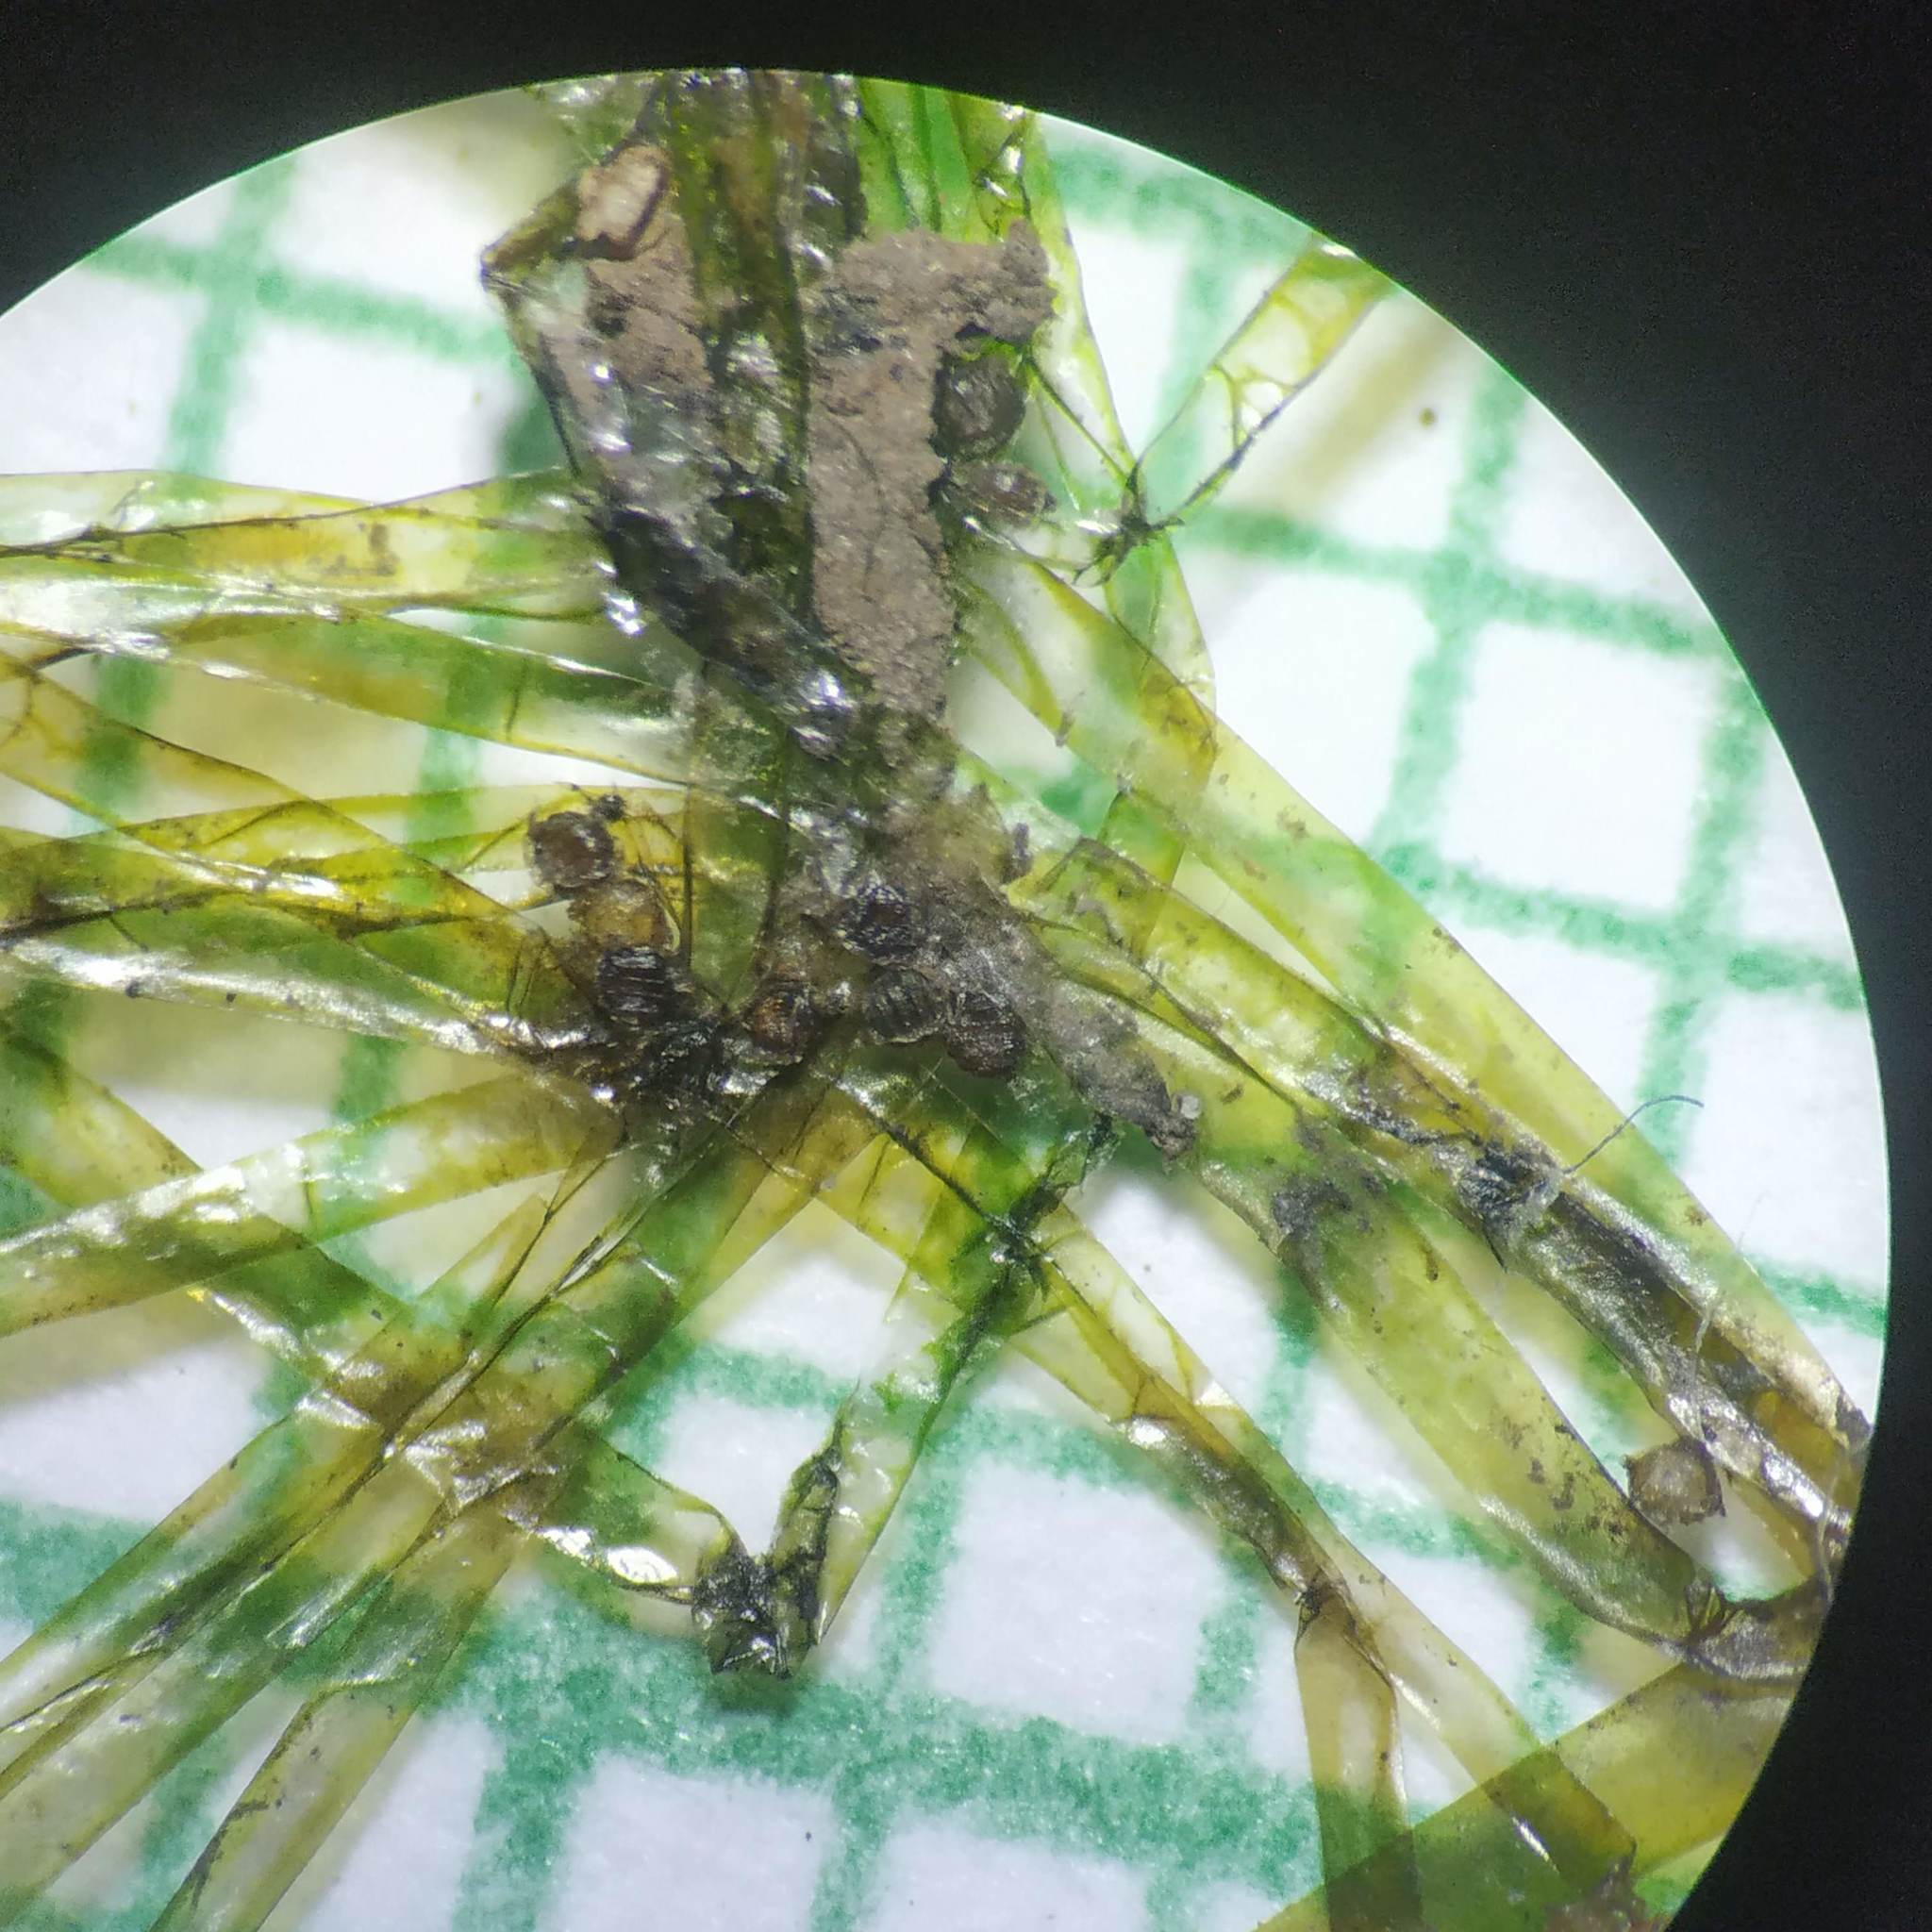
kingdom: Plantae
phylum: Charophyta
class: Charophyceae
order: Charales
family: Characeae
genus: Nitella
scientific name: Nitella
